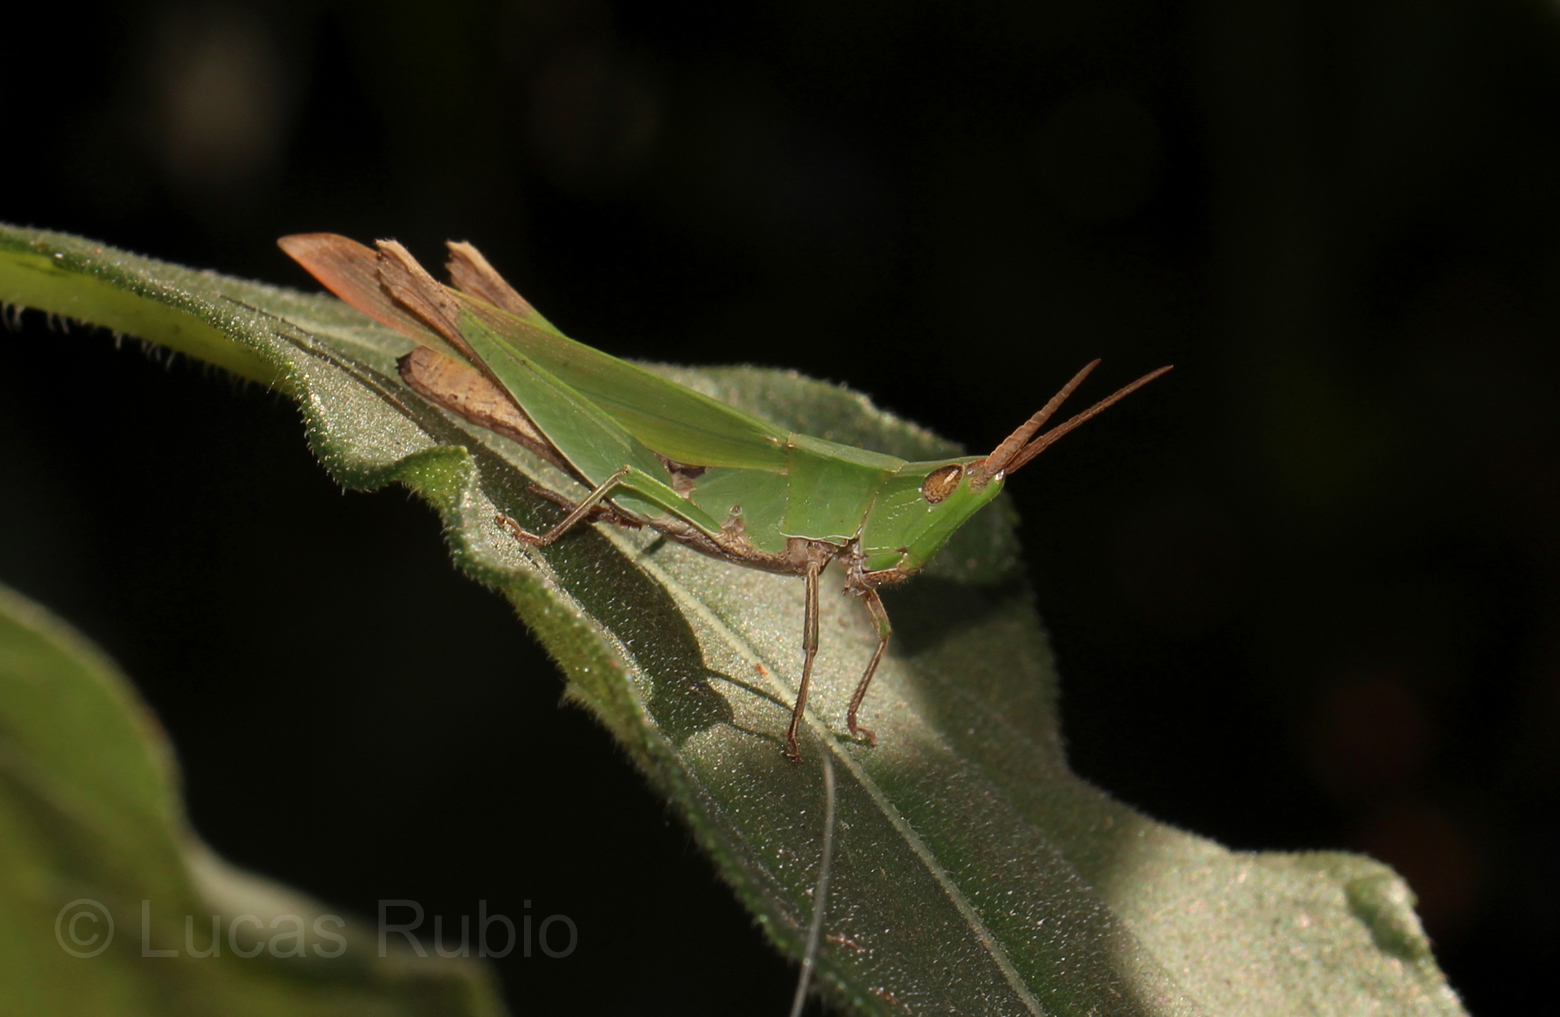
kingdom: Animalia
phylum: Arthropoda
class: Insecta
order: Orthoptera
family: Acrididae
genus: Allotruxalis
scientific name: Allotruxalis gracilis
